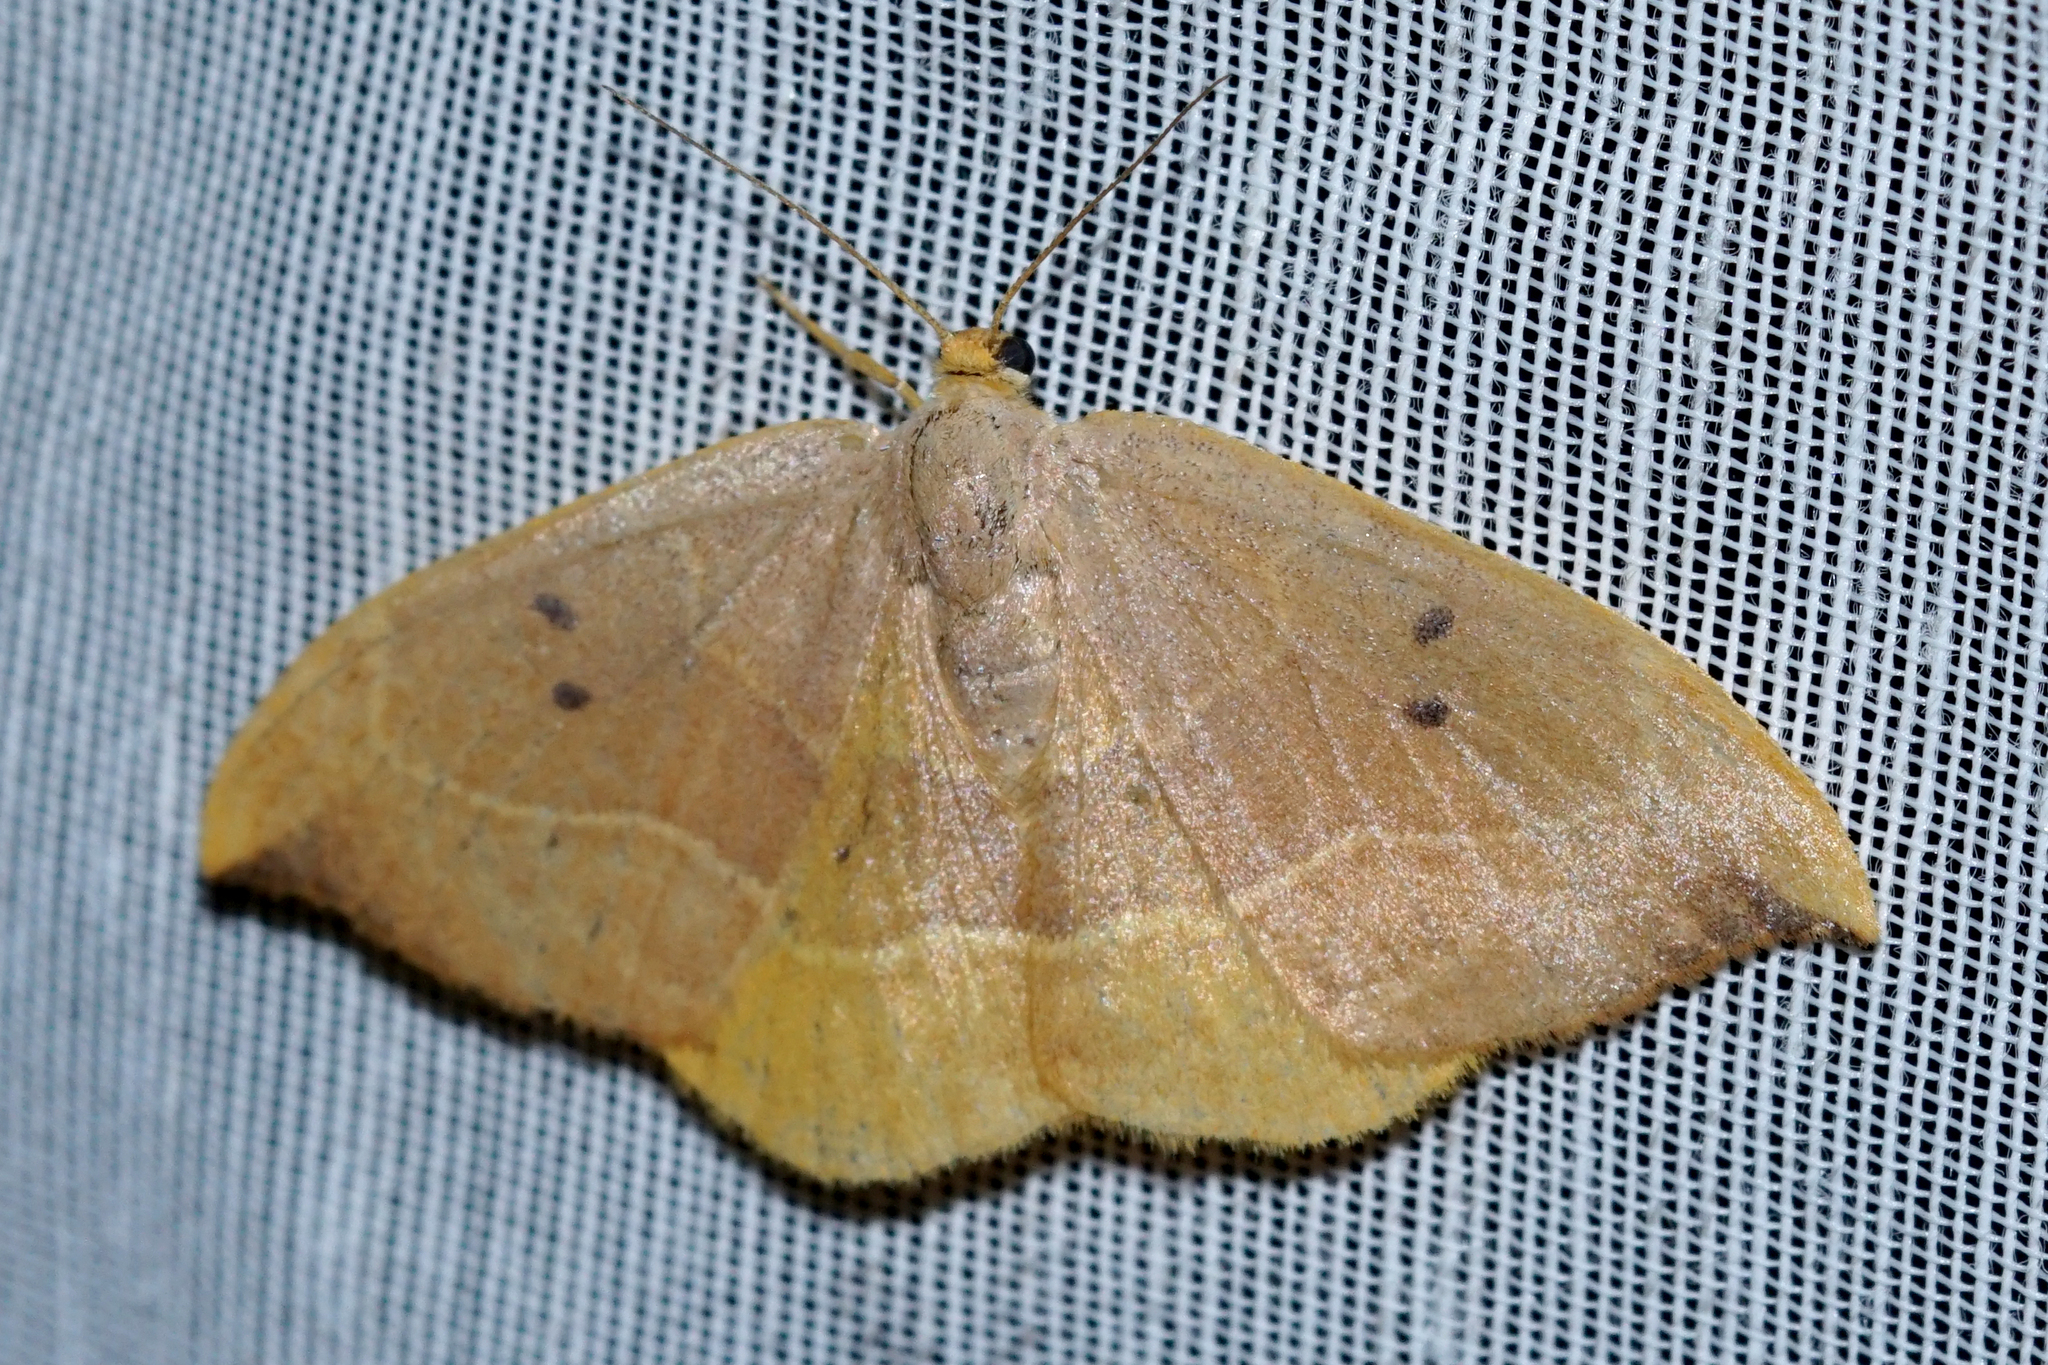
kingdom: Animalia
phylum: Arthropoda
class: Insecta
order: Lepidoptera
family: Drepanidae
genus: Watsonalla
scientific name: Watsonalla binaria
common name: Oak hook-tip
